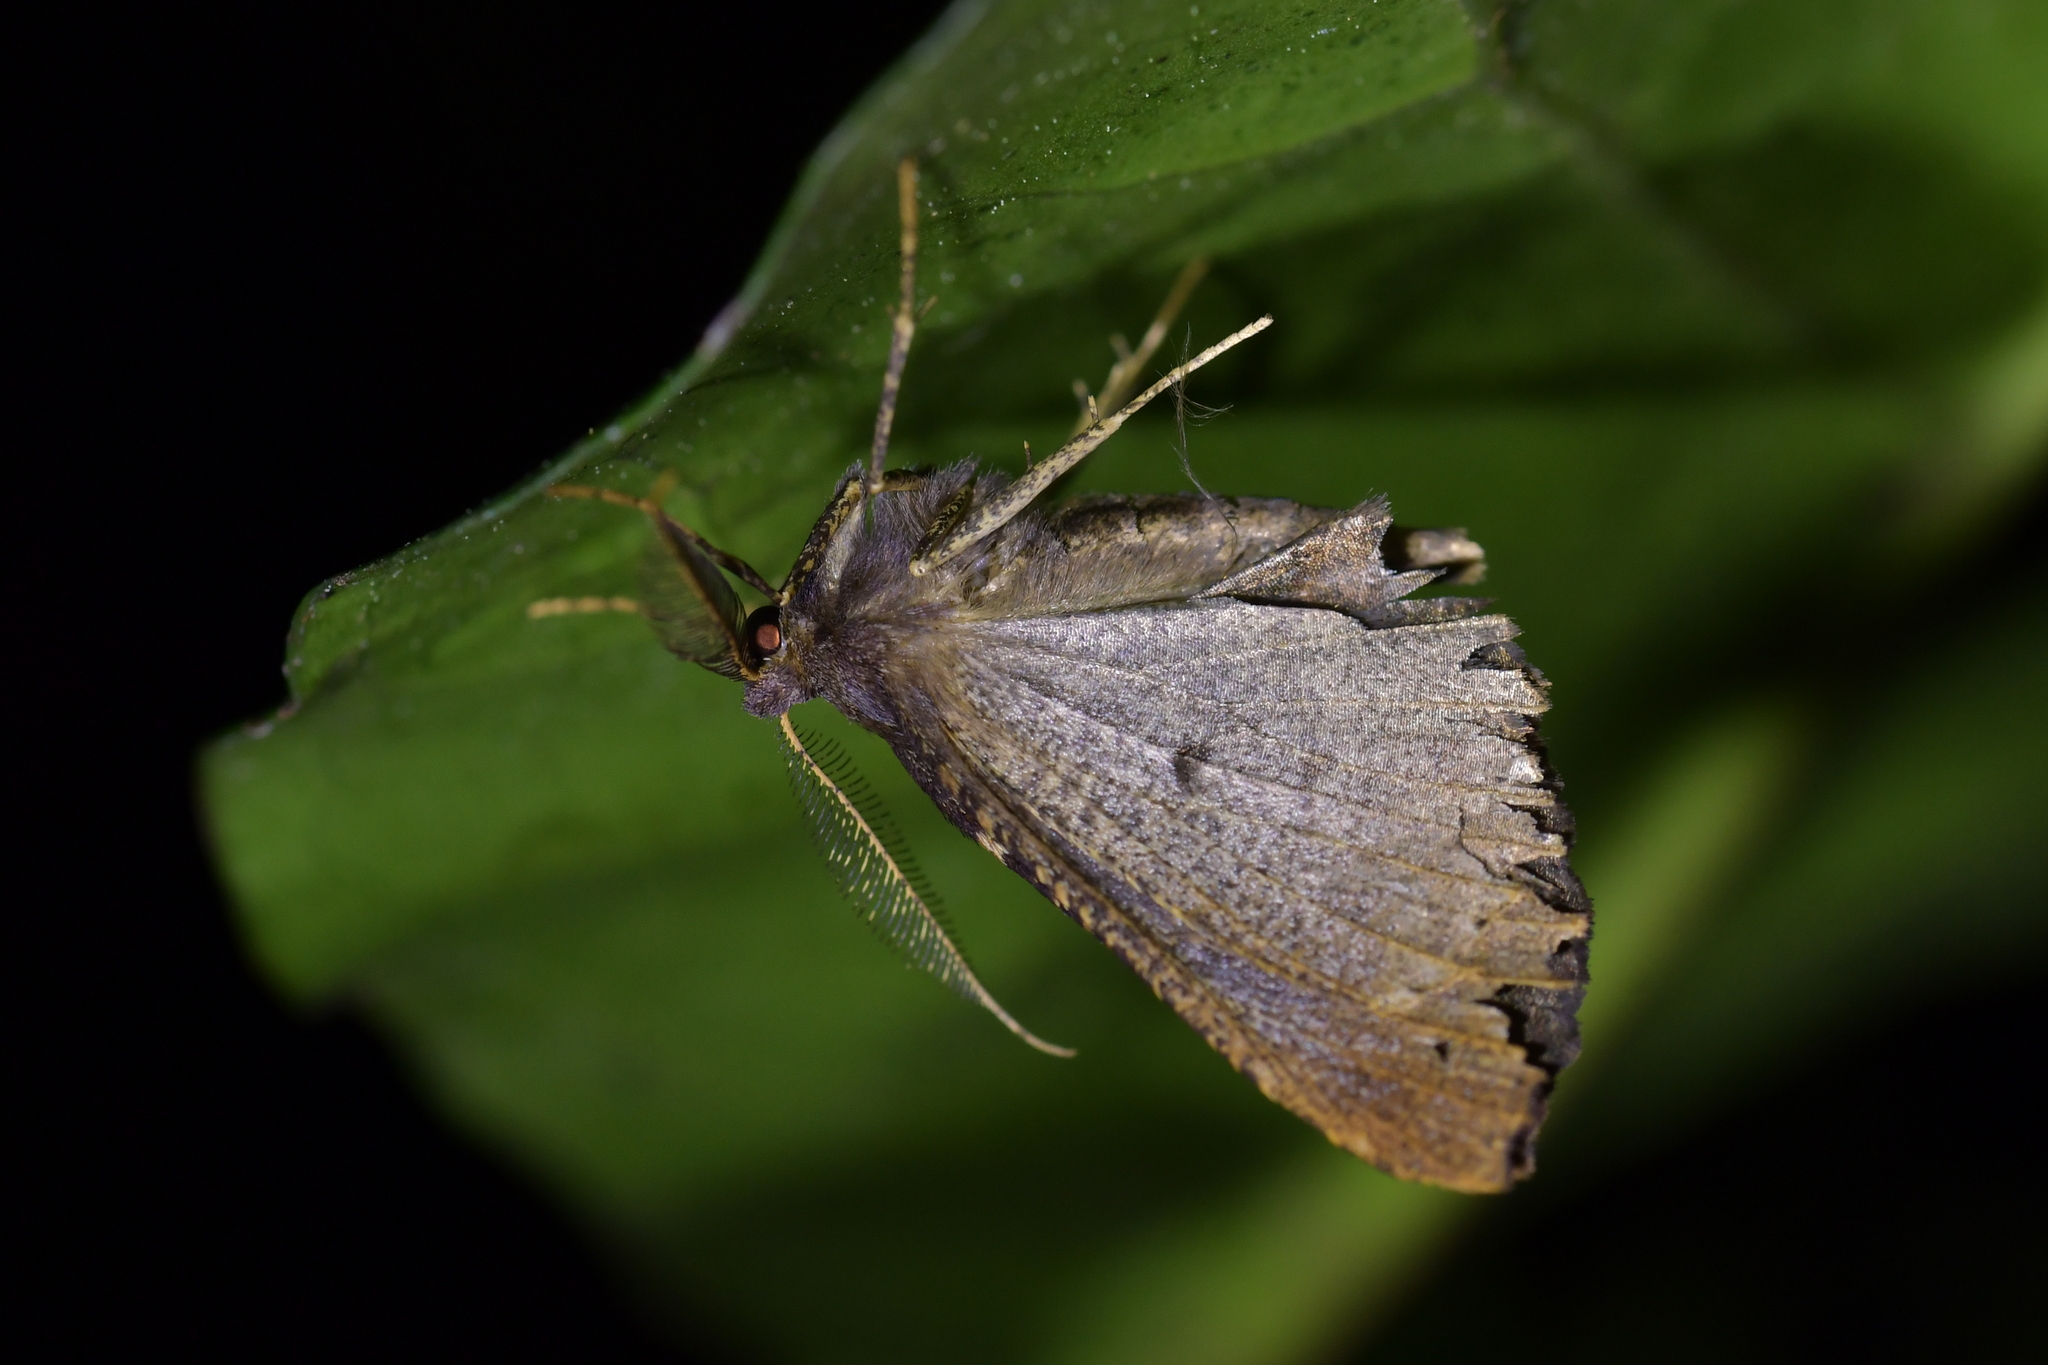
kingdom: Animalia
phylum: Arthropoda
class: Insecta
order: Lepidoptera
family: Geometridae
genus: Cleora
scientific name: Cleora scriptaria
